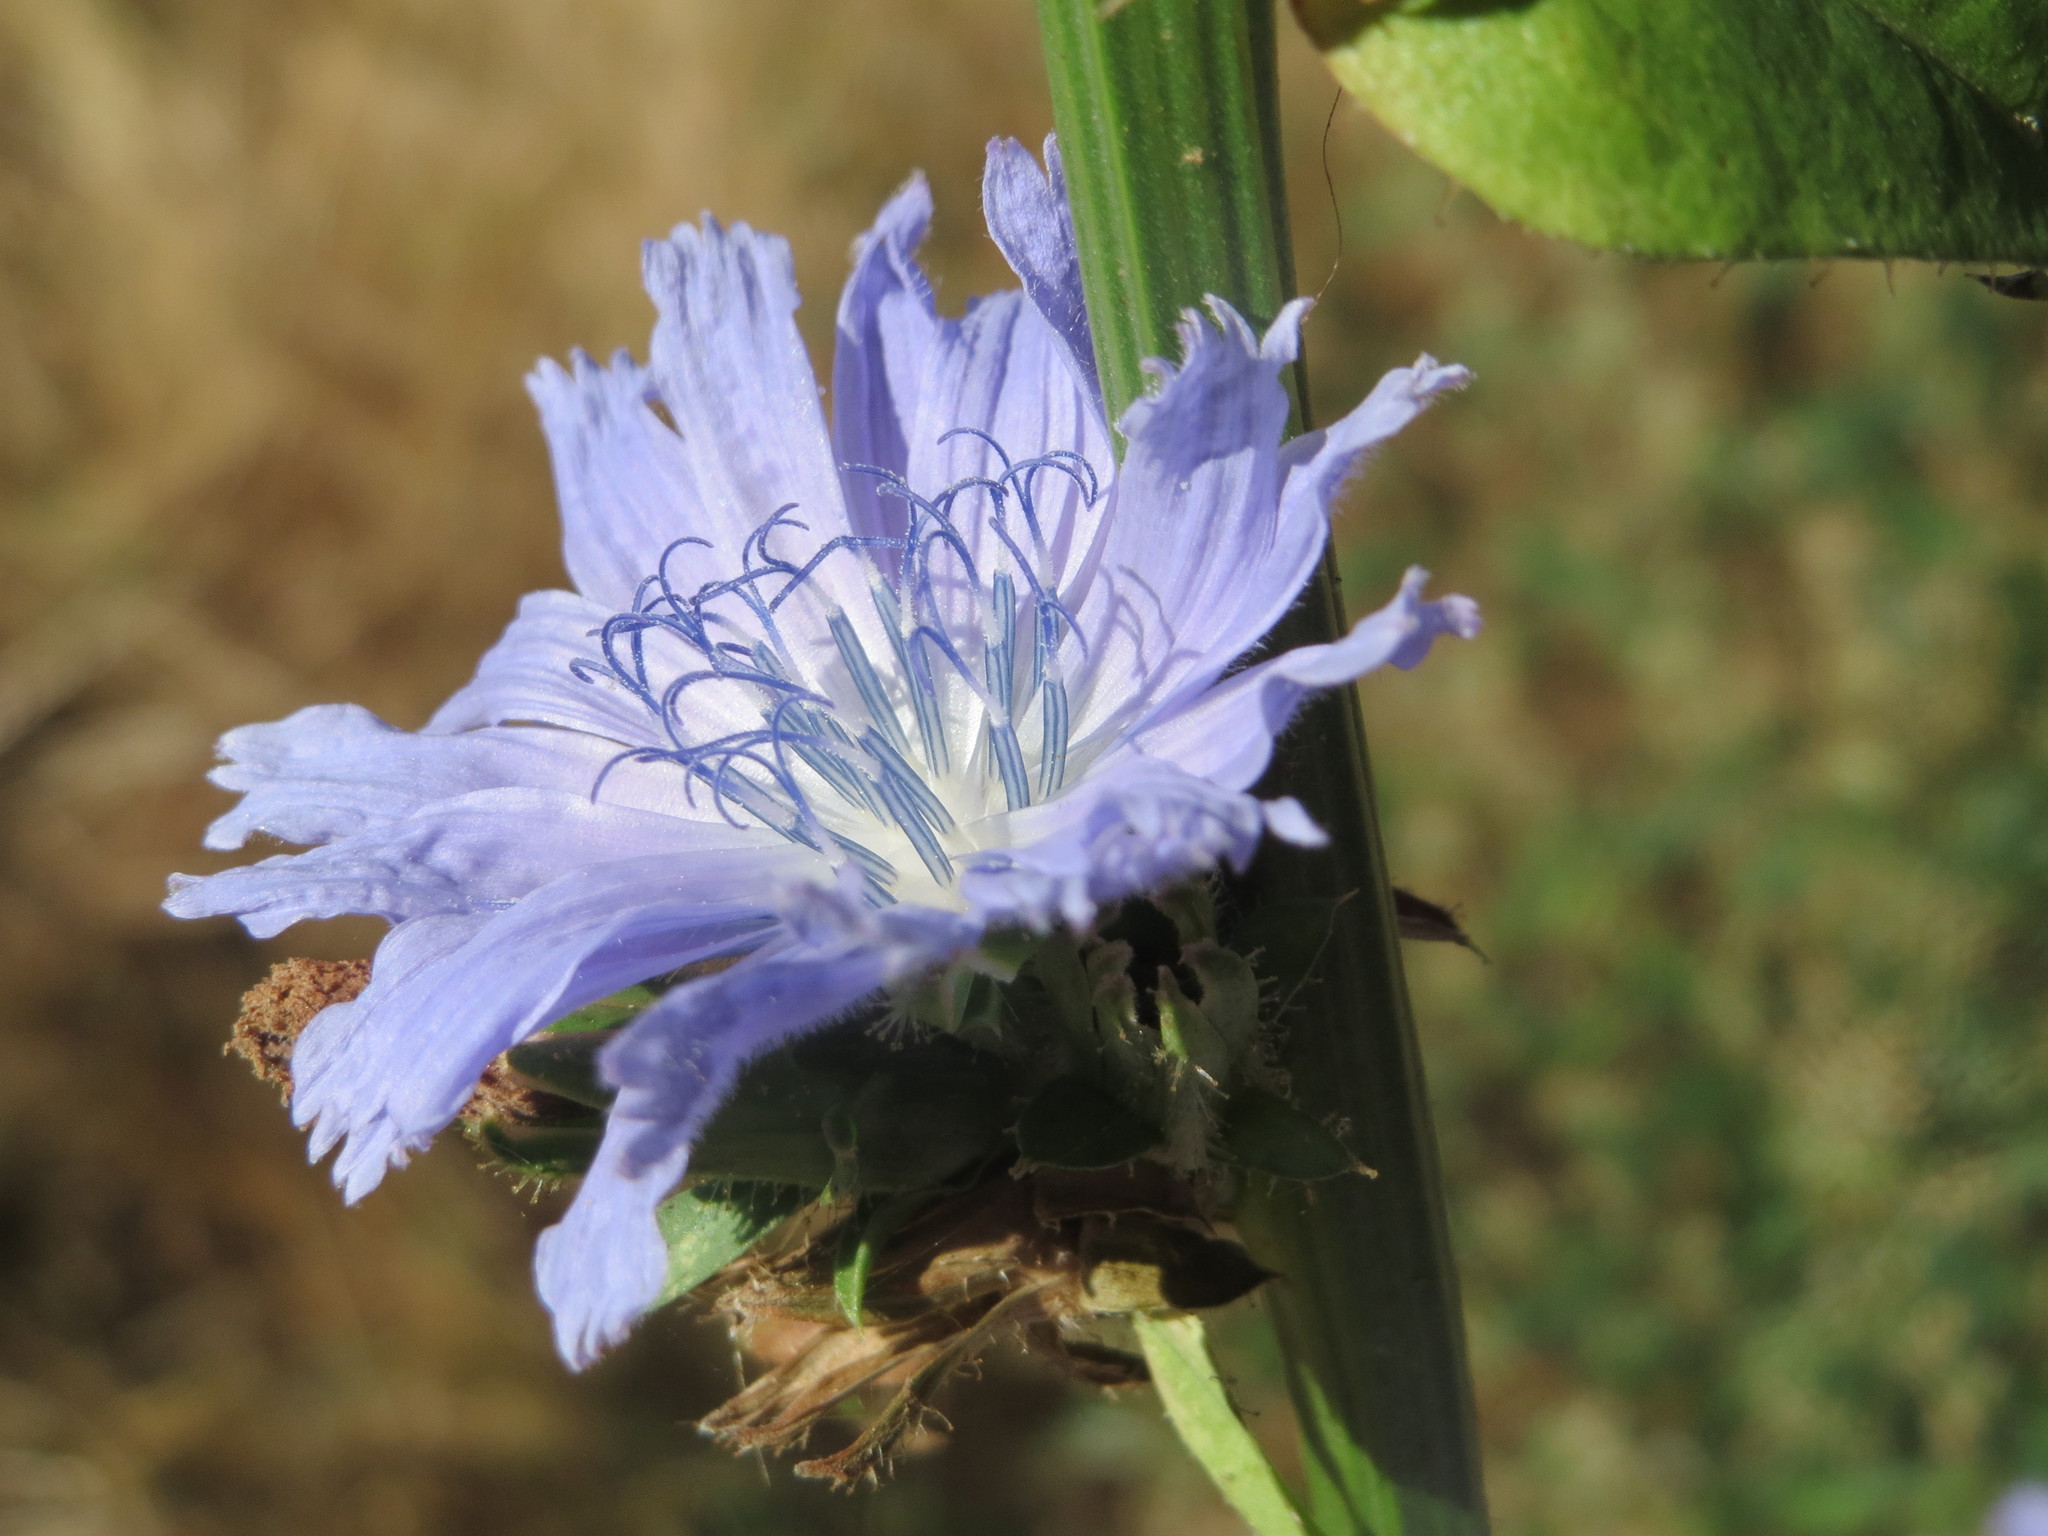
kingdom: Plantae
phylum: Tracheophyta
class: Magnoliopsida
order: Asterales
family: Asteraceae
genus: Cichorium
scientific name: Cichorium intybus
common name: Chicory
